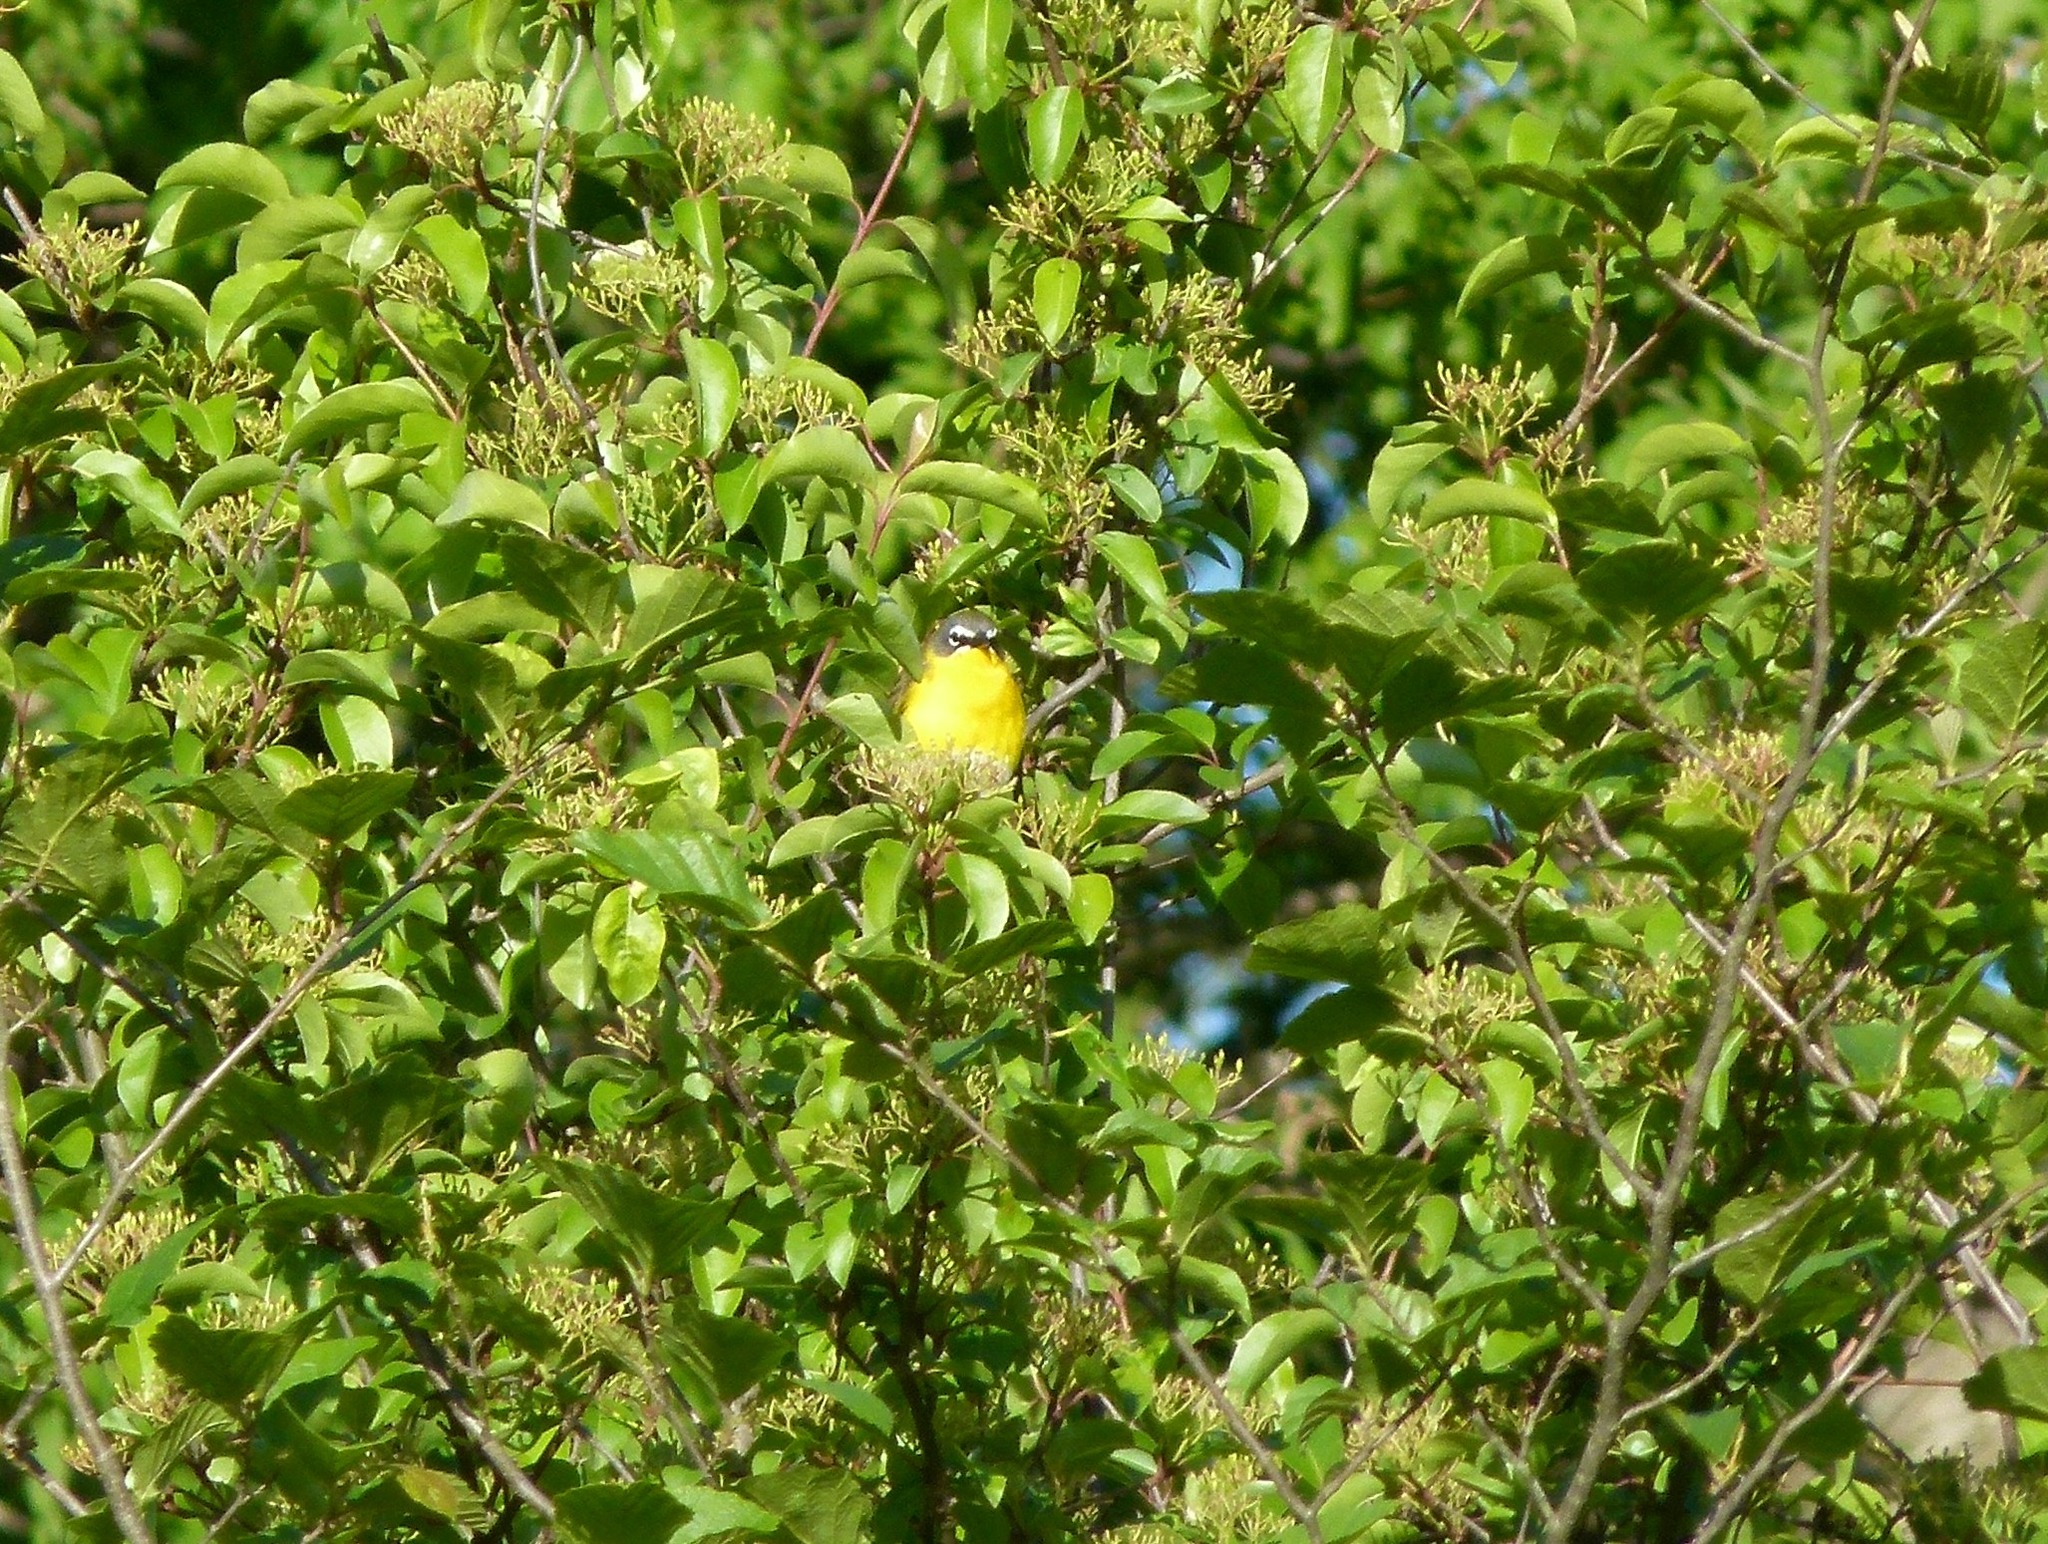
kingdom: Animalia
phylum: Chordata
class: Aves
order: Passeriformes
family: Parulidae
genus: Icteria
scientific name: Icteria virens
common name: Yellow-breasted chat
